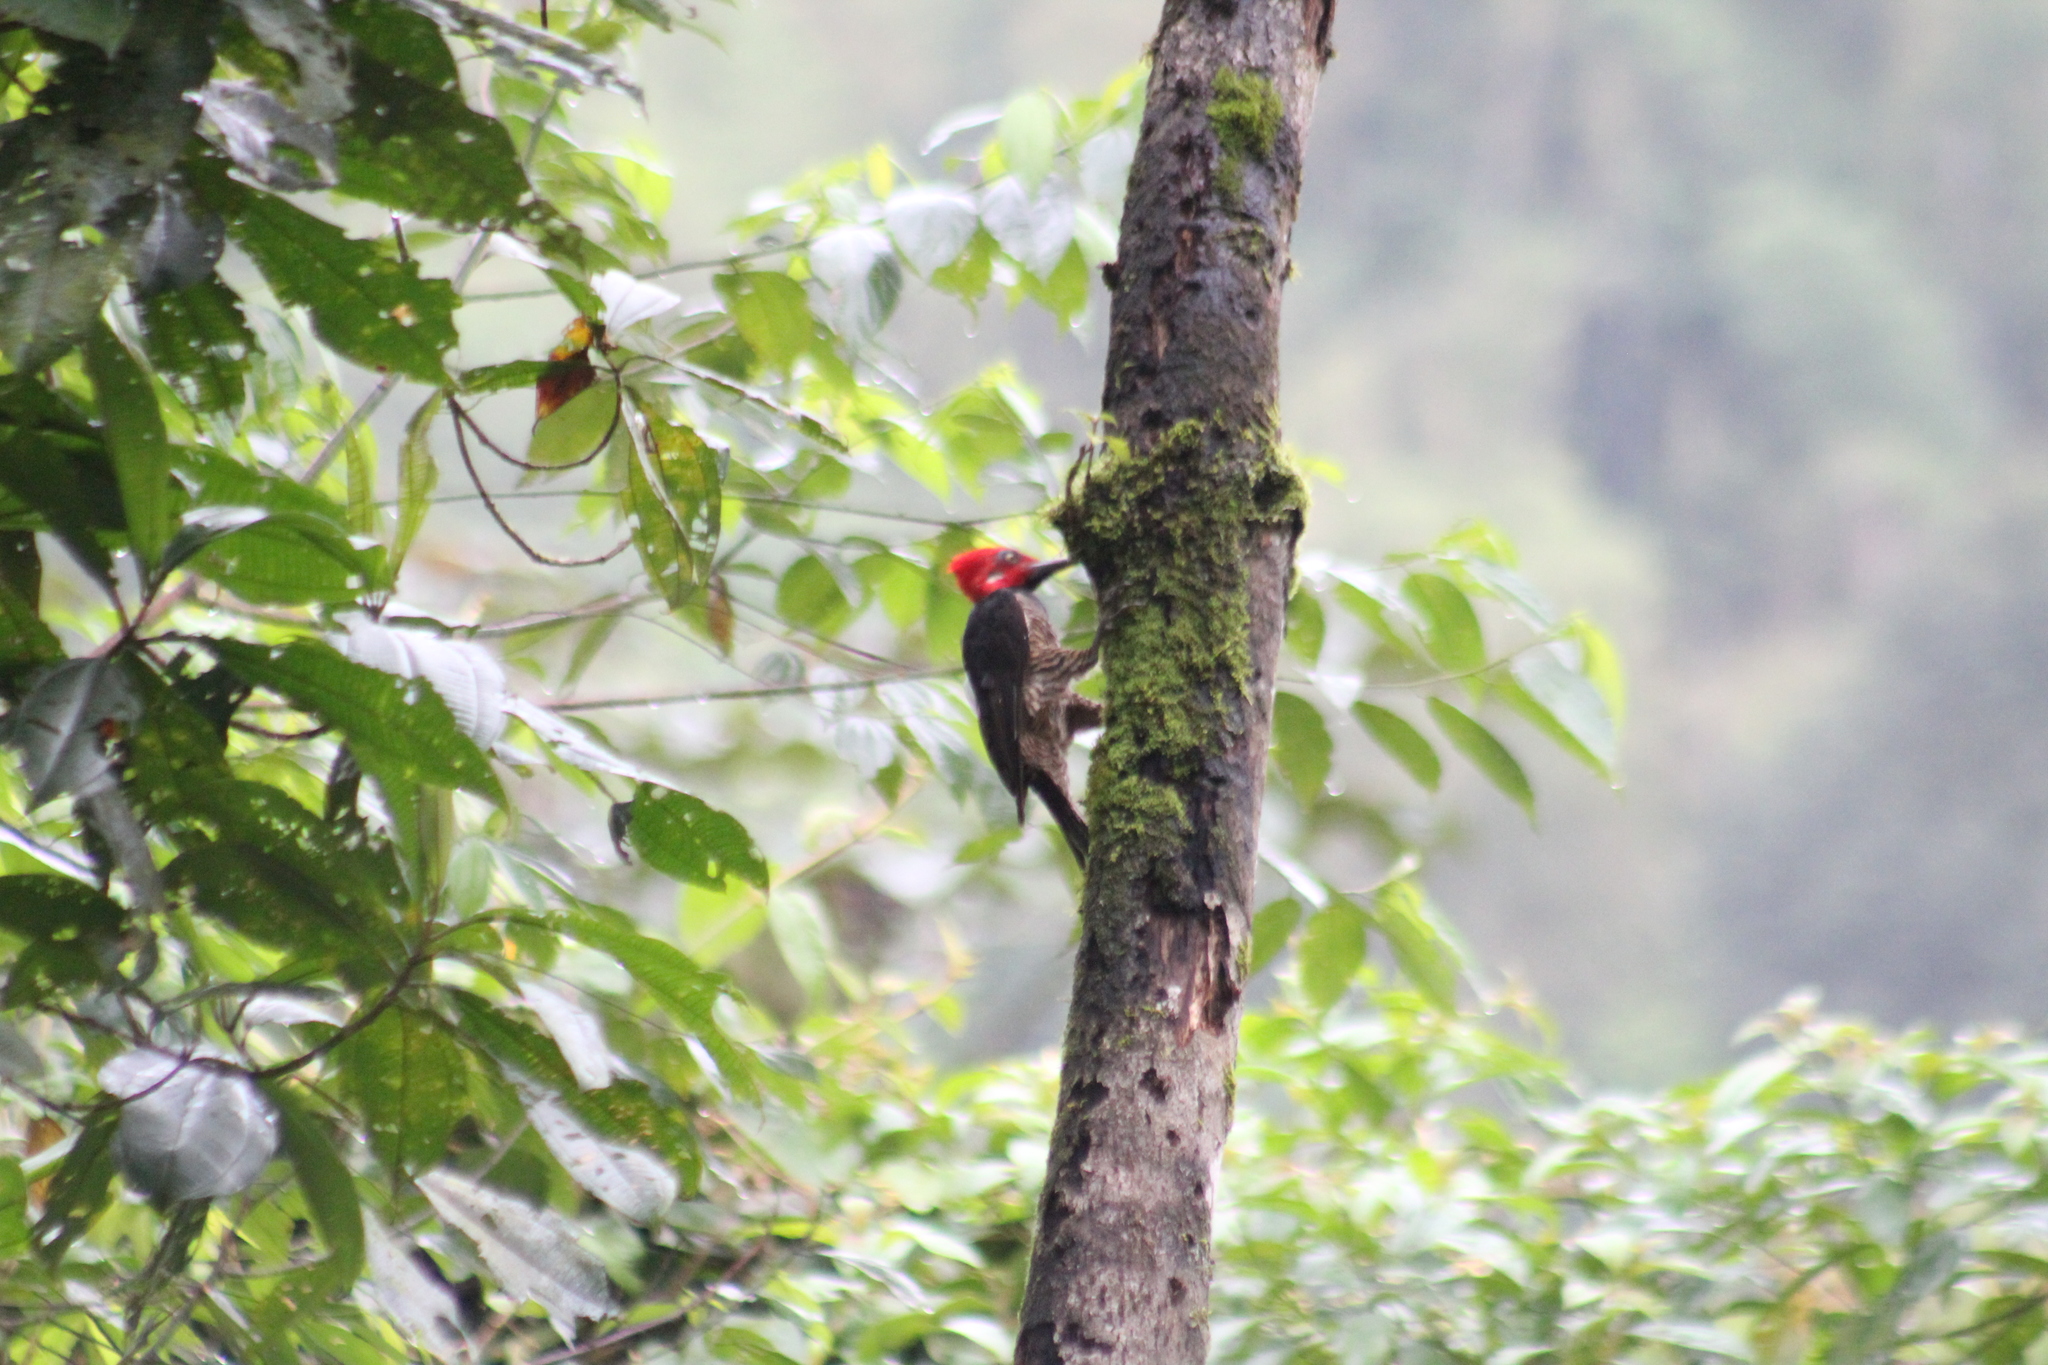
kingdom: Animalia
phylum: Chordata
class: Aves
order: Piciformes
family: Picidae
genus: Campephilus
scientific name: Campephilus gayaquilensis
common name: Guayaquil woodpecker
